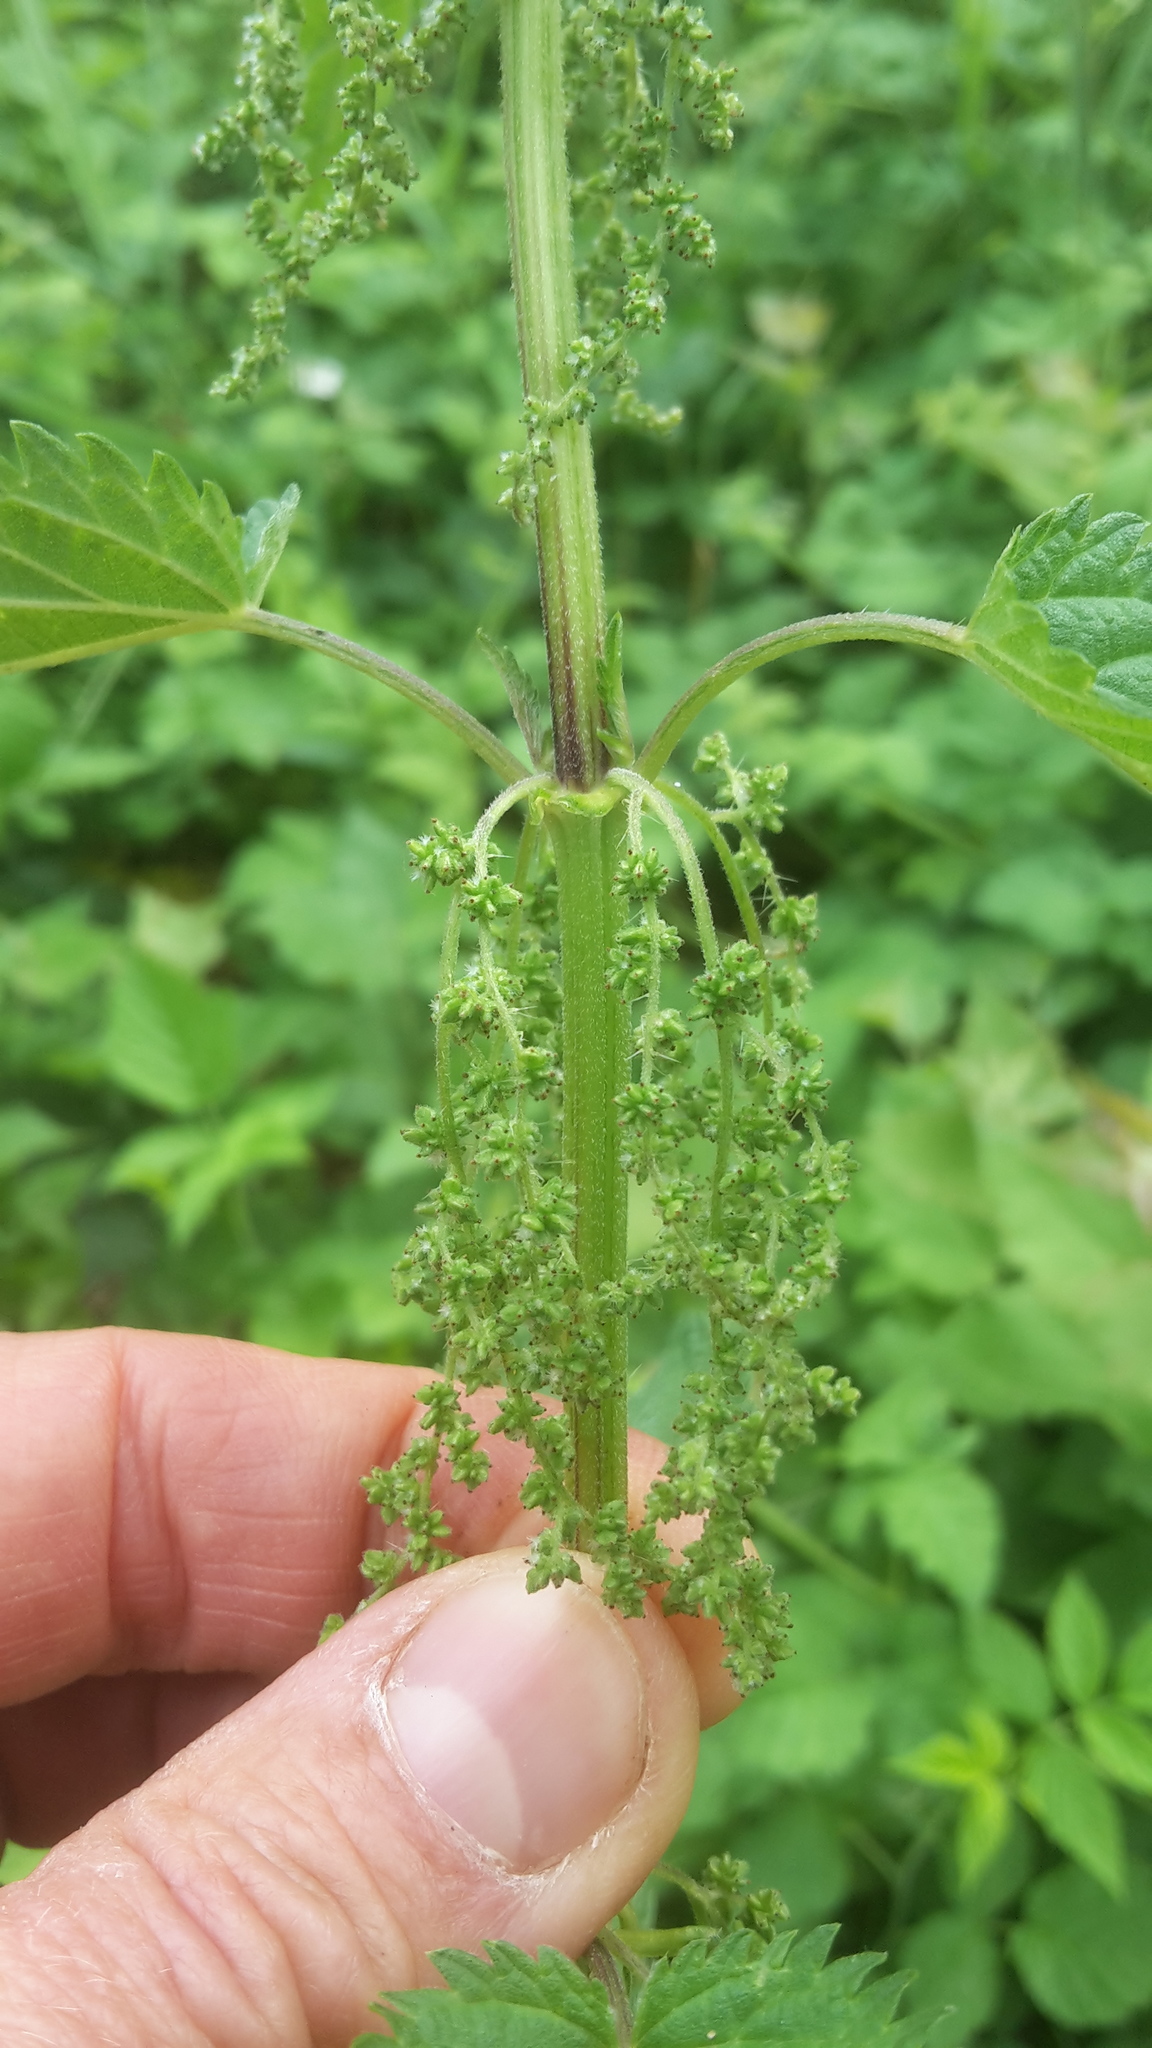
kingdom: Plantae
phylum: Tracheophyta
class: Magnoliopsida
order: Rosales
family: Urticaceae
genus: Urtica
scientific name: Urtica dioica
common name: Common nettle
